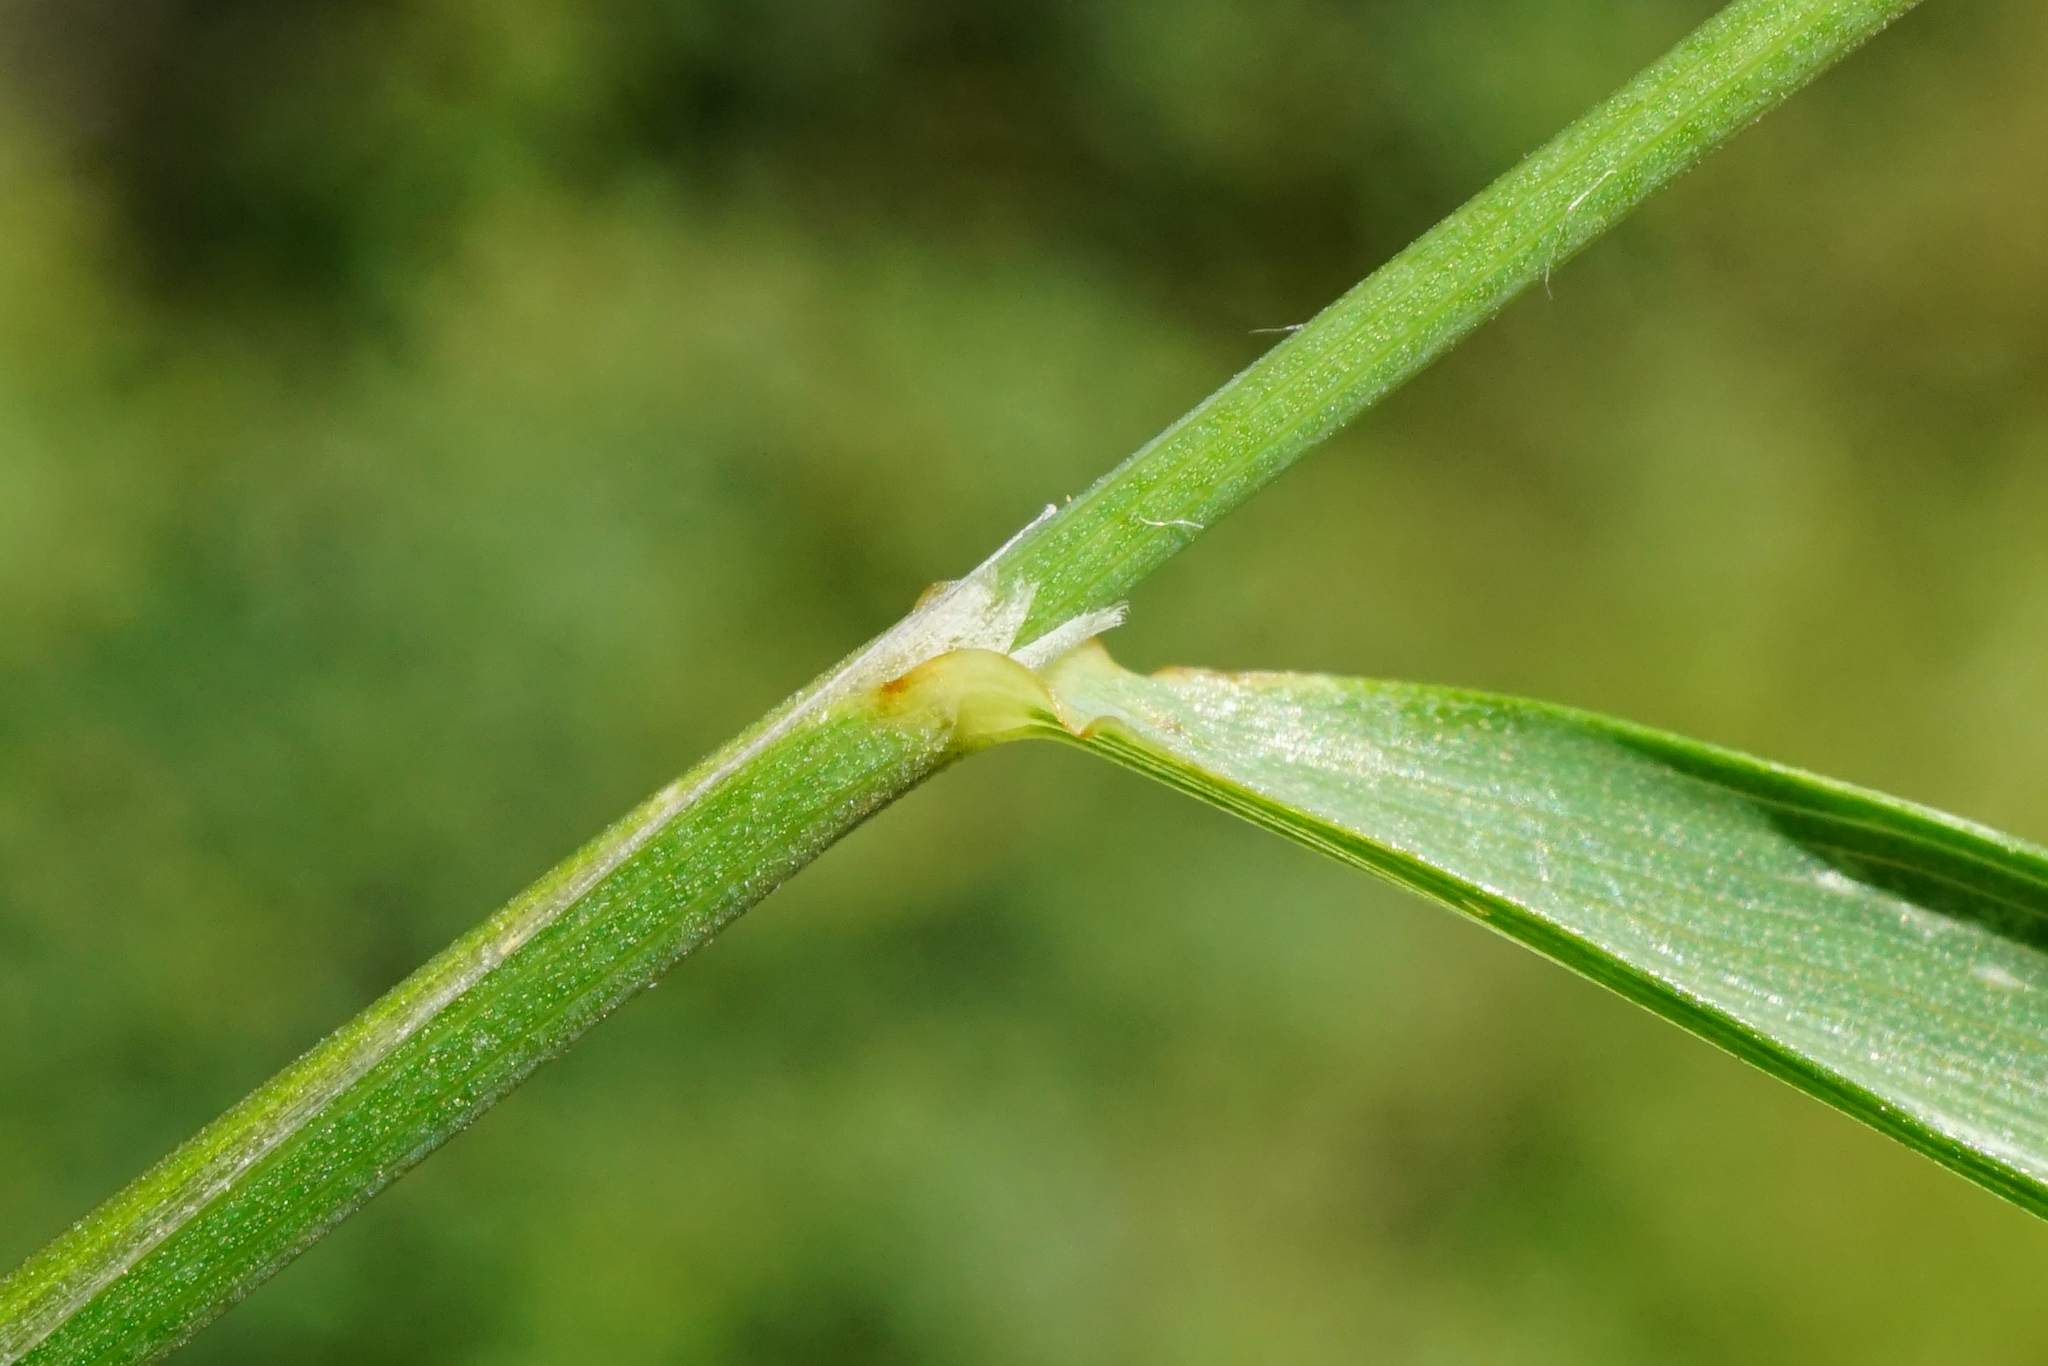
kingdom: Plantae
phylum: Tracheophyta
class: Liliopsida
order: Poales
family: Poaceae
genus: Arrhenatherum
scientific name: Arrhenatherum elatius
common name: Tall oatgrass
